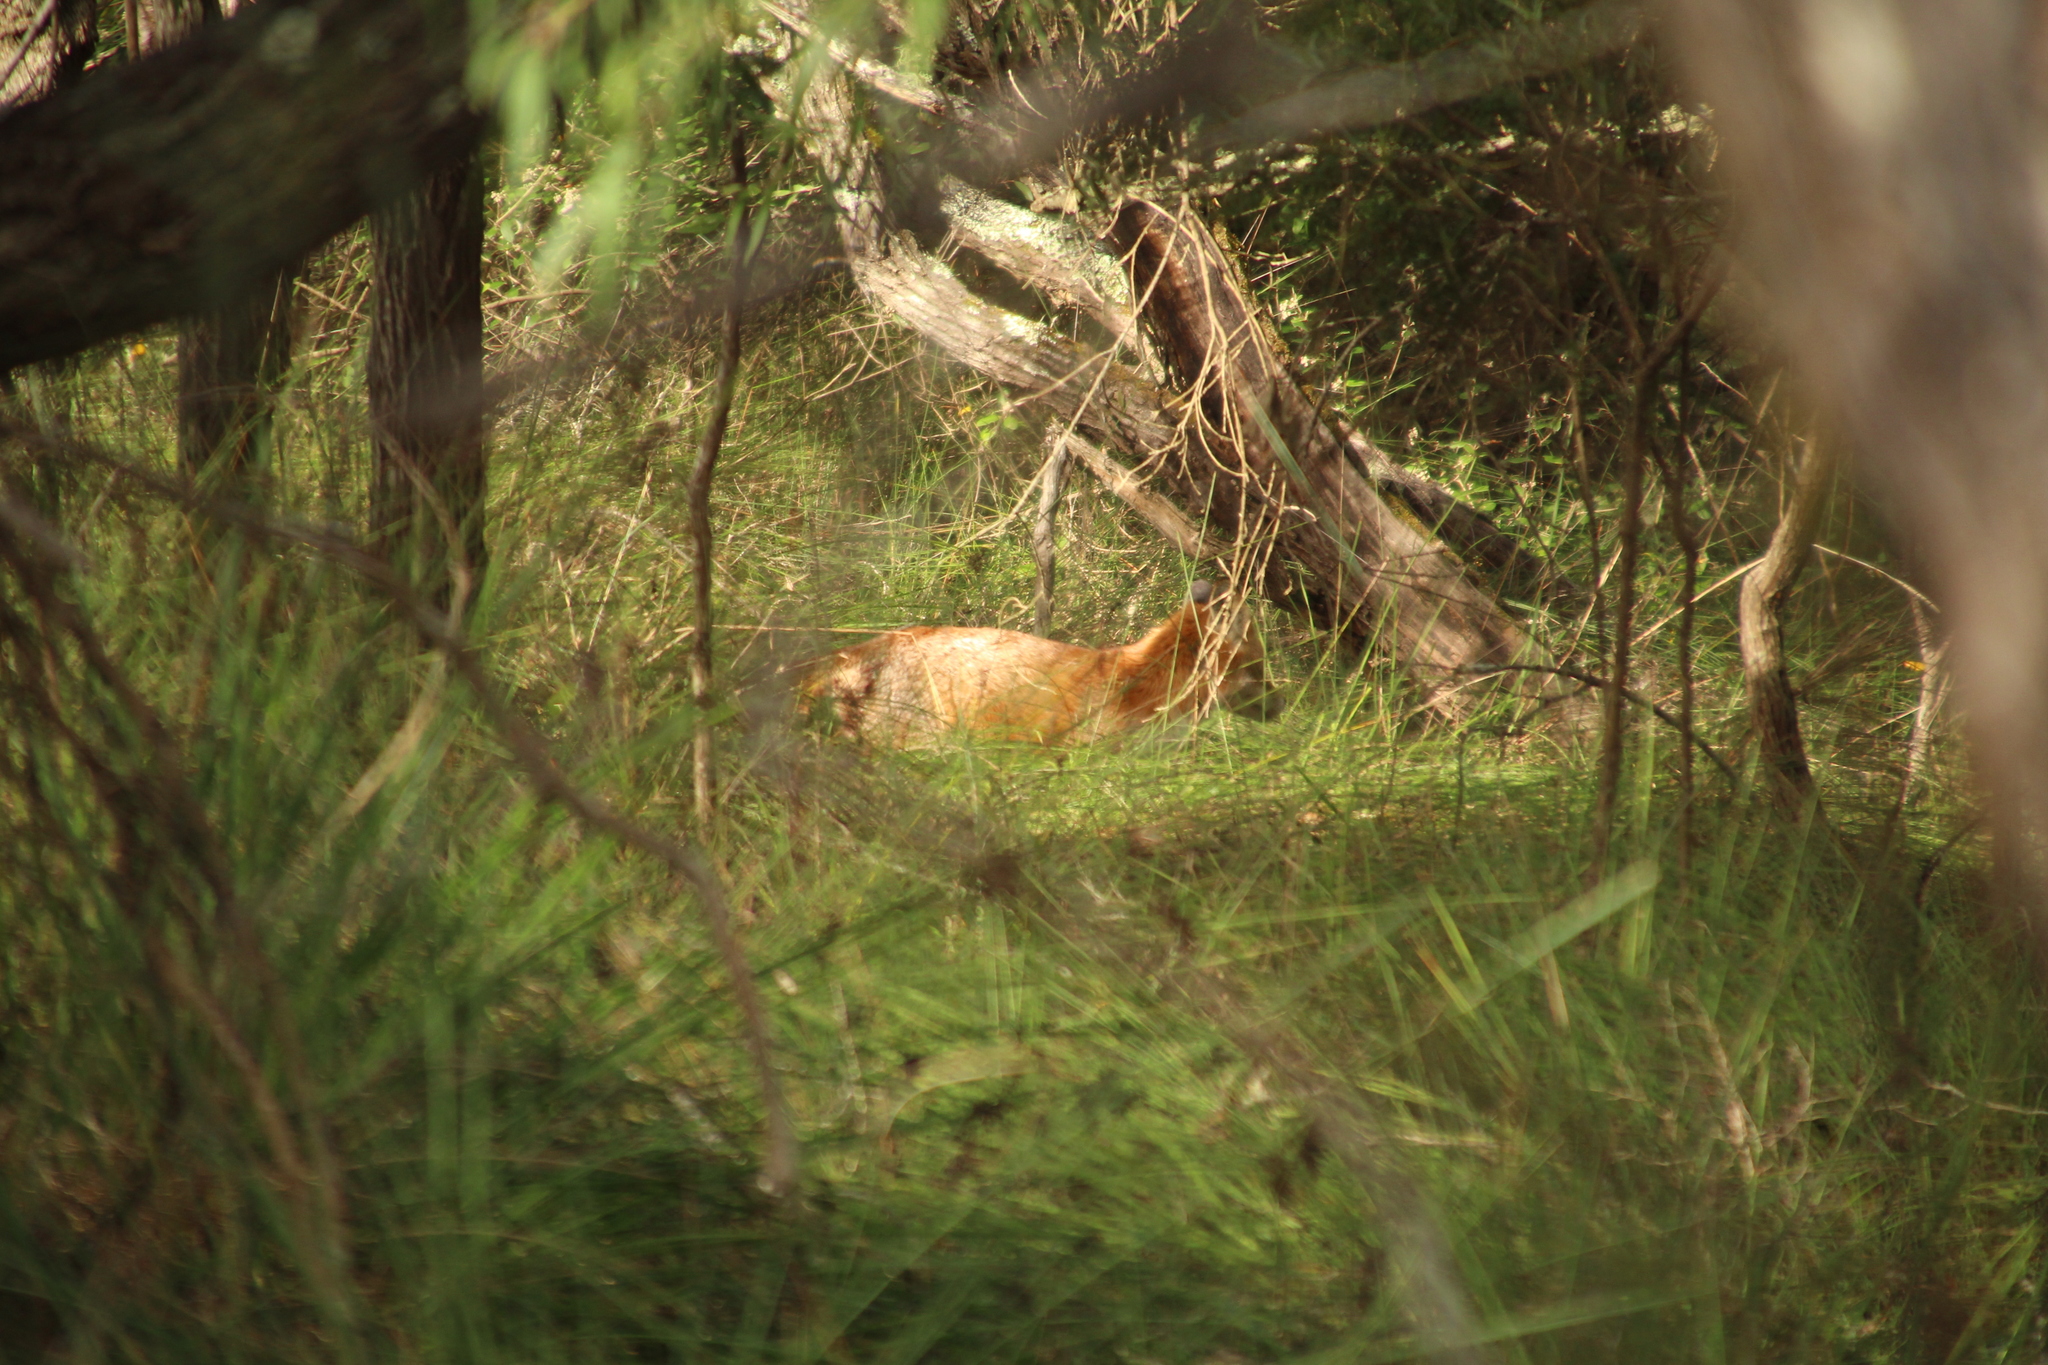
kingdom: Animalia
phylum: Chordata
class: Mammalia
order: Carnivora
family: Canidae
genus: Vulpes
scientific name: Vulpes vulpes
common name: Red fox
